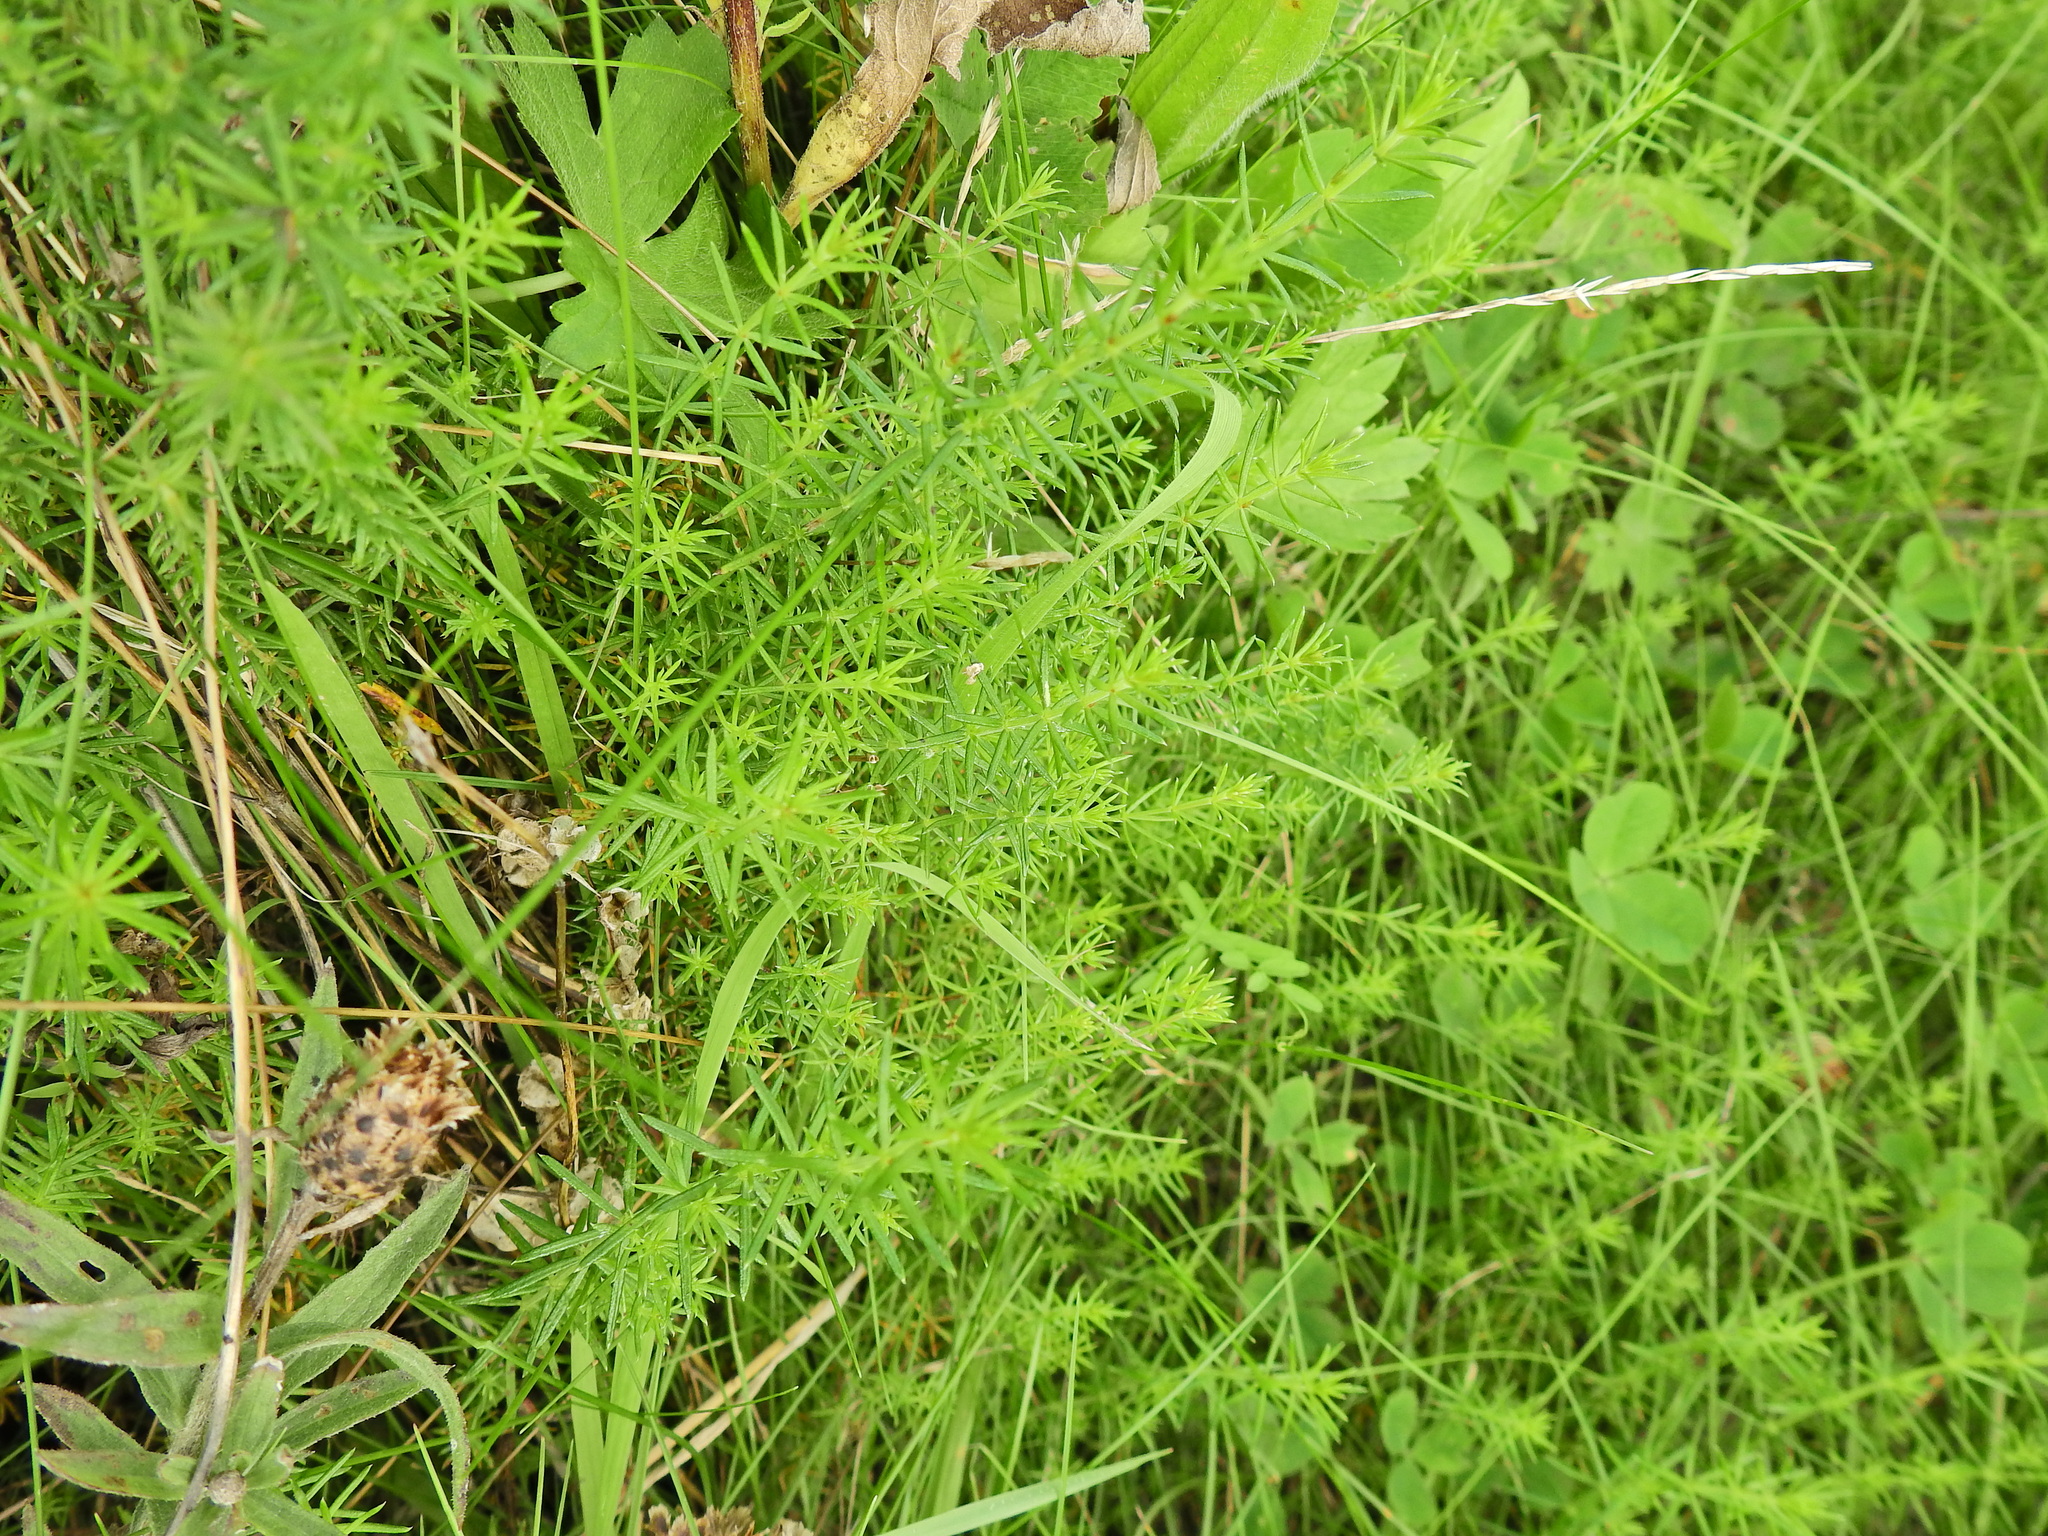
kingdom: Plantae
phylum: Tracheophyta
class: Magnoliopsida
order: Gentianales
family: Rubiaceae
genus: Galium
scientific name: Galium verum
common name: Lady's bedstraw
